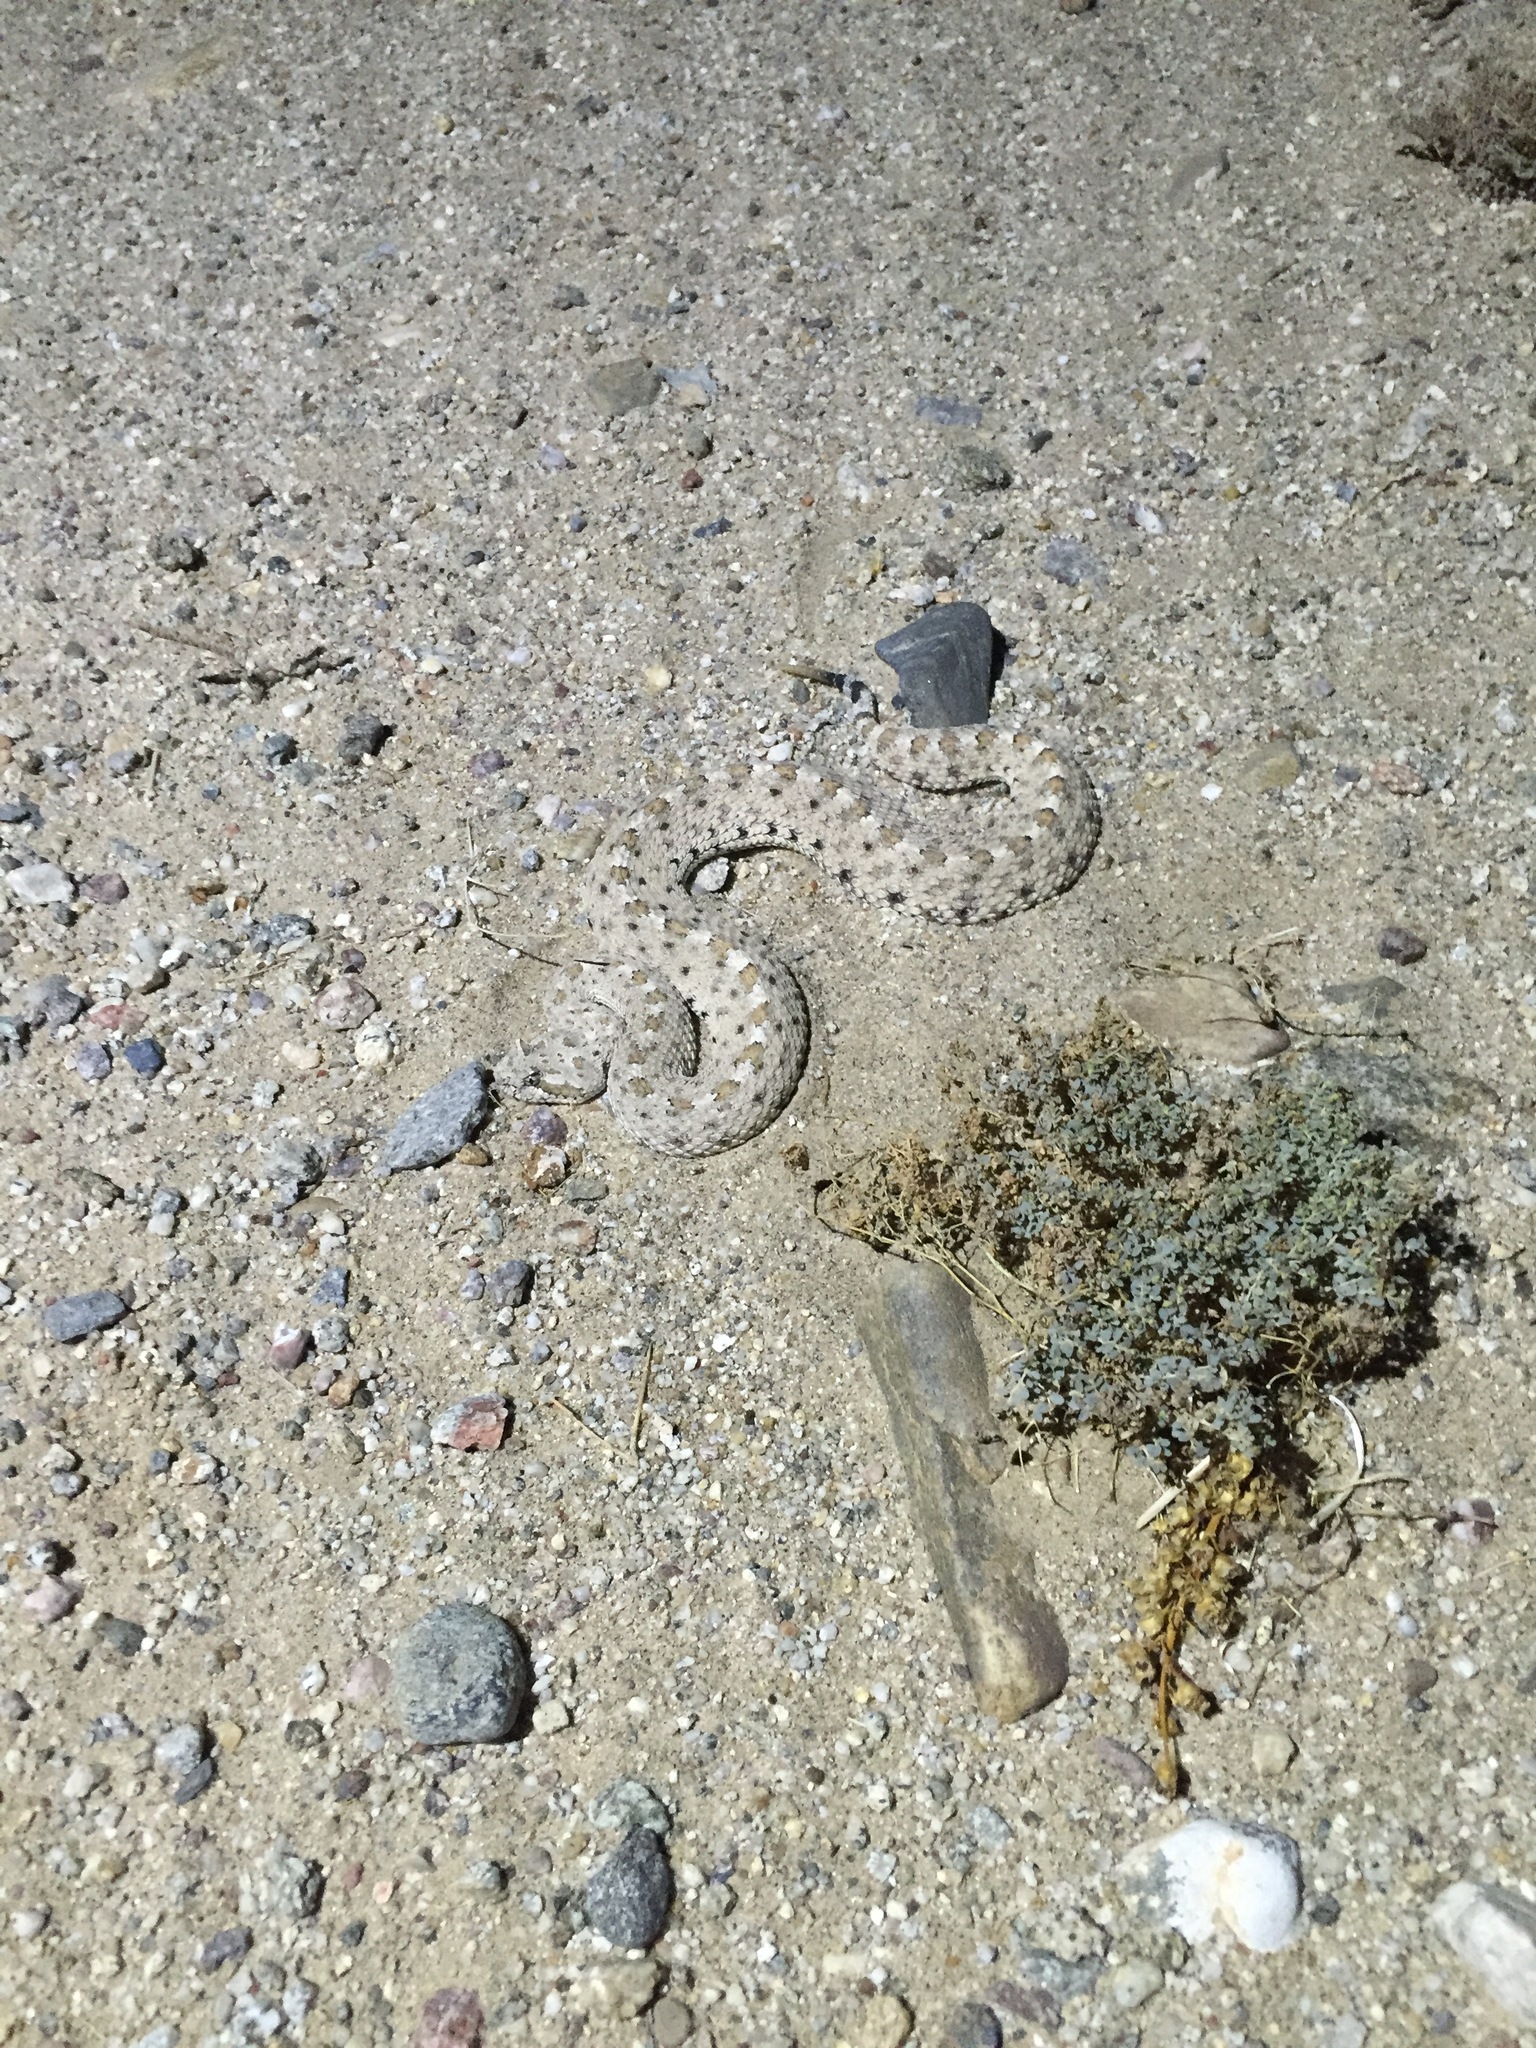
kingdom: Animalia
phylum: Chordata
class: Squamata
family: Viperidae
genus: Crotalus
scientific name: Crotalus cerastes
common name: Sidewinder
